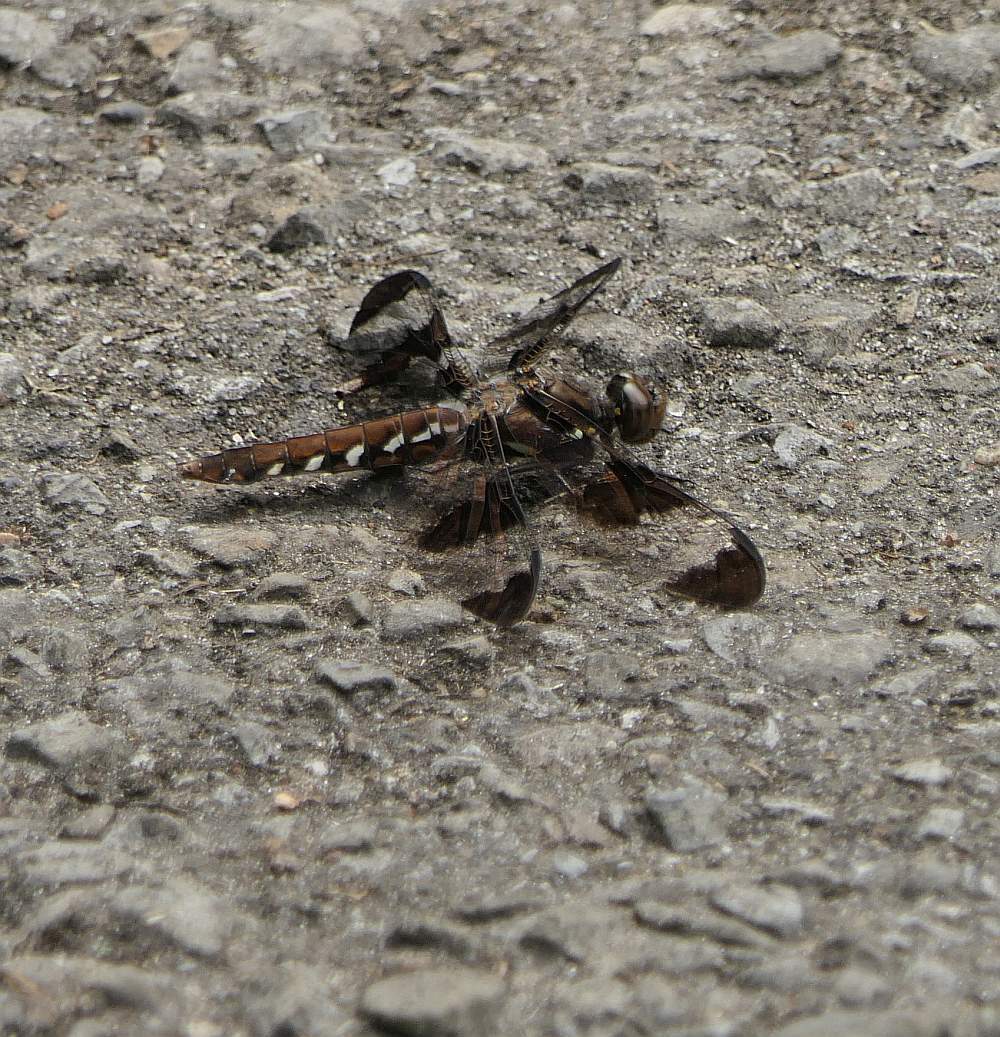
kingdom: Animalia
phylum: Arthropoda
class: Insecta
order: Odonata
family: Libellulidae
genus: Plathemis
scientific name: Plathemis lydia
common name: Common whitetail
